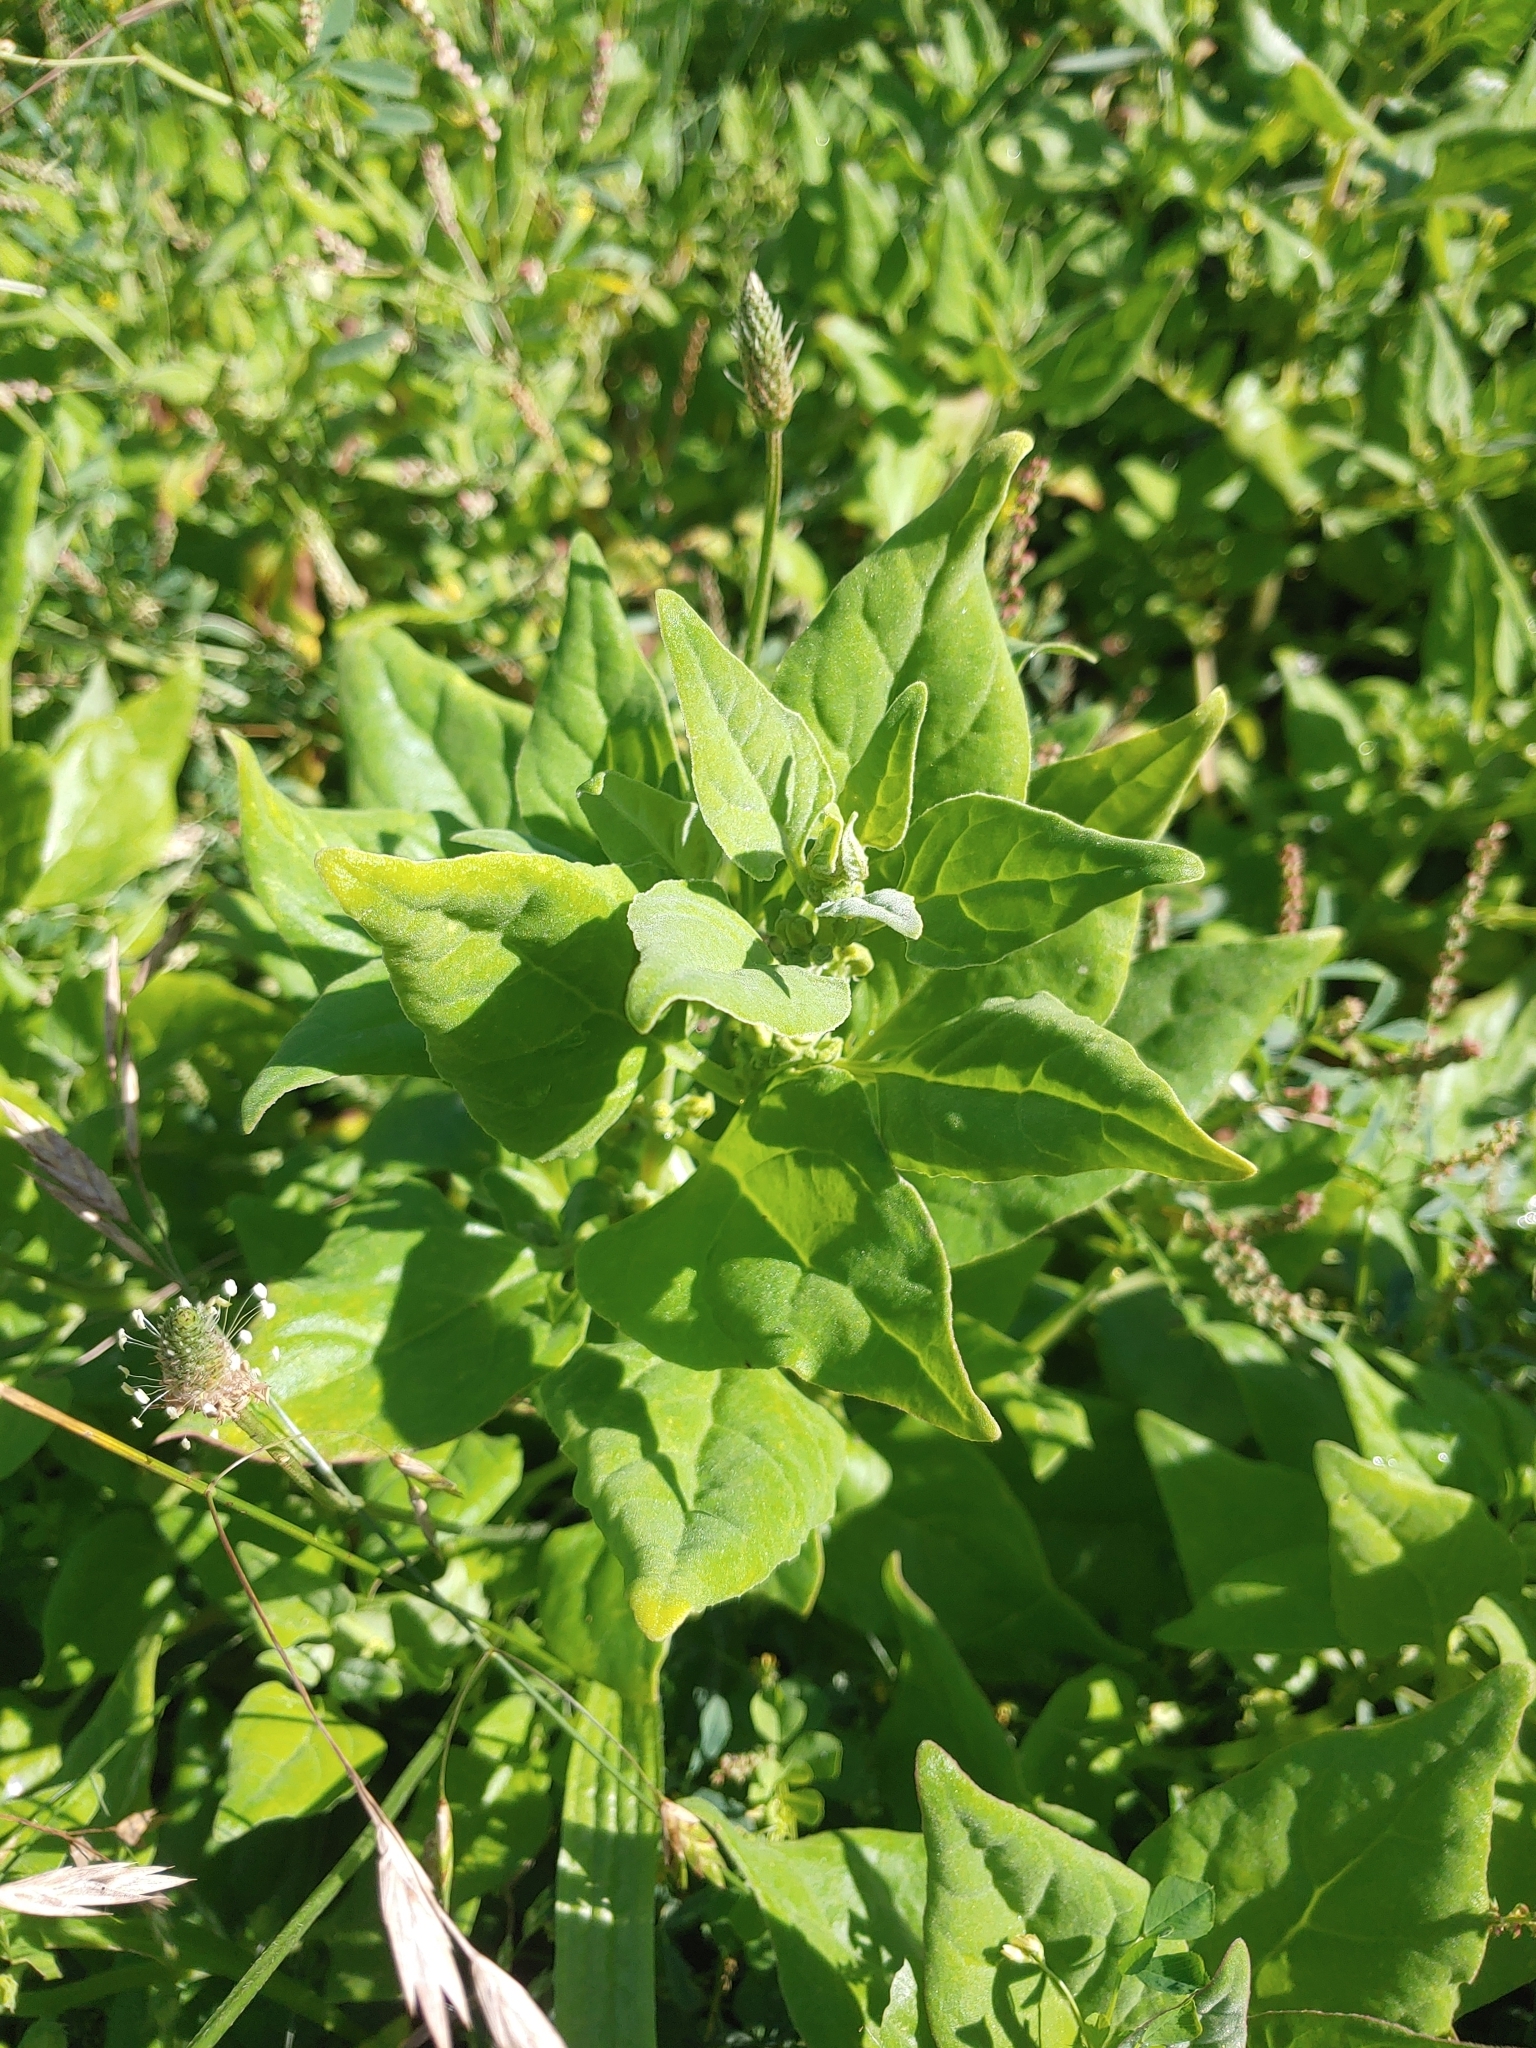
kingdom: Plantae
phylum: Tracheophyta
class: Magnoliopsida
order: Caryophyllales
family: Aizoaceae
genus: Tetragonia
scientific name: Tetragonia tetragonoides
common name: New zealand-spinach
